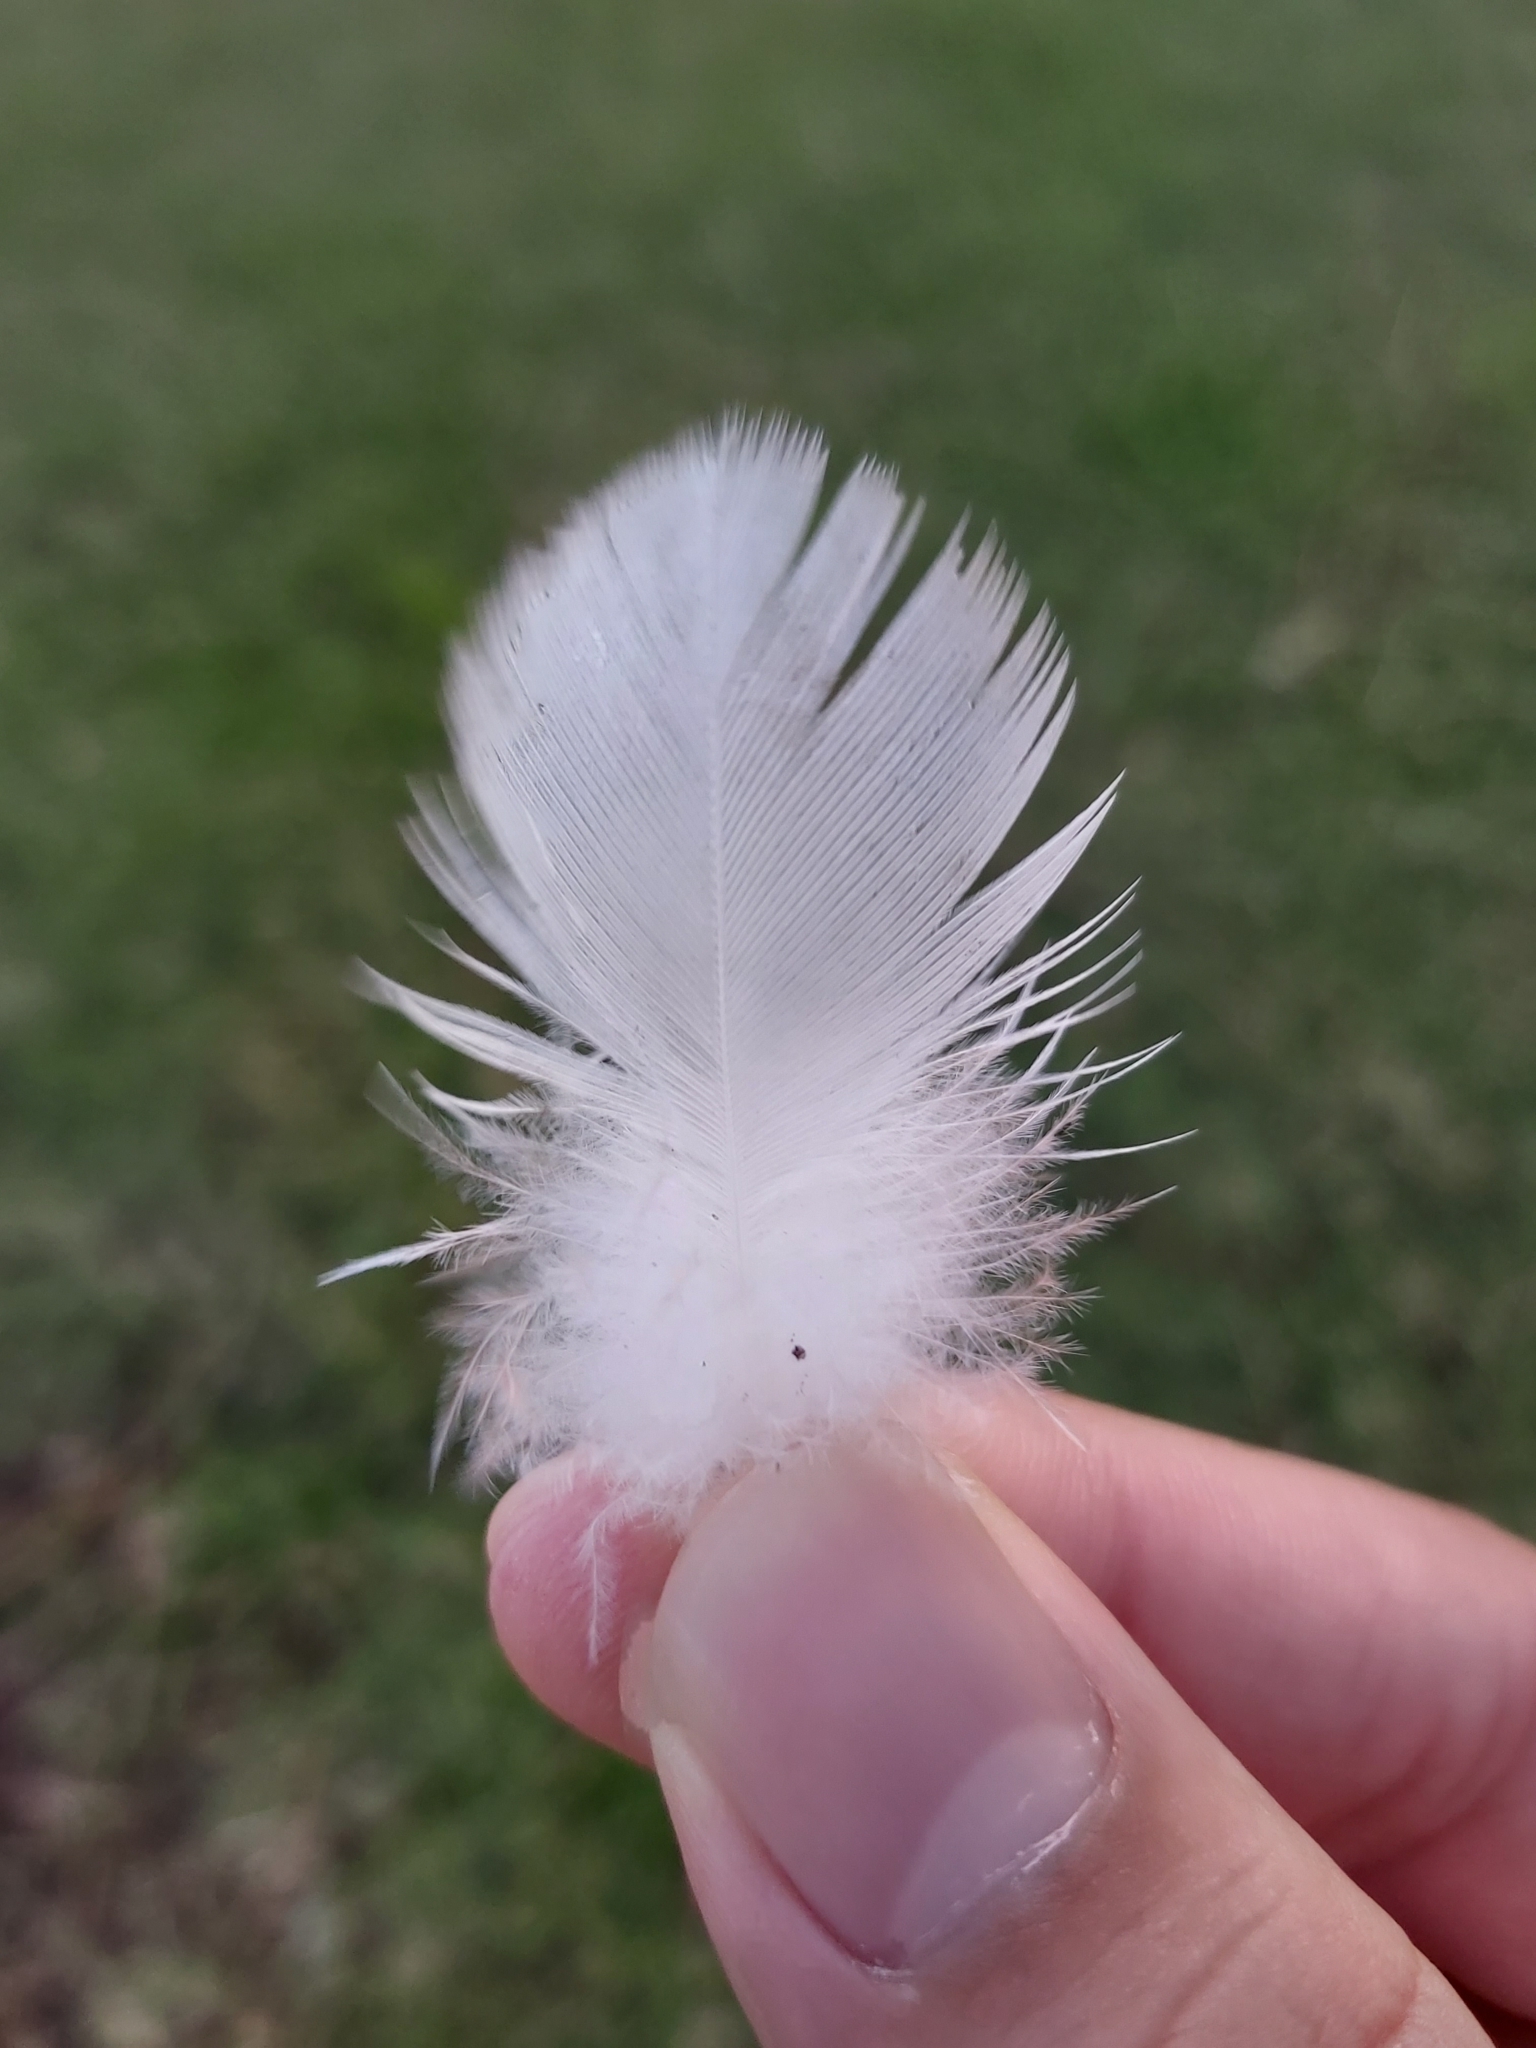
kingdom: Animalia
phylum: Chordata
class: Aves
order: Psittaciformes
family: Psittacidae
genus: Cacatua
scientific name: Cacatua tenuirostris
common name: Long-billed corella
